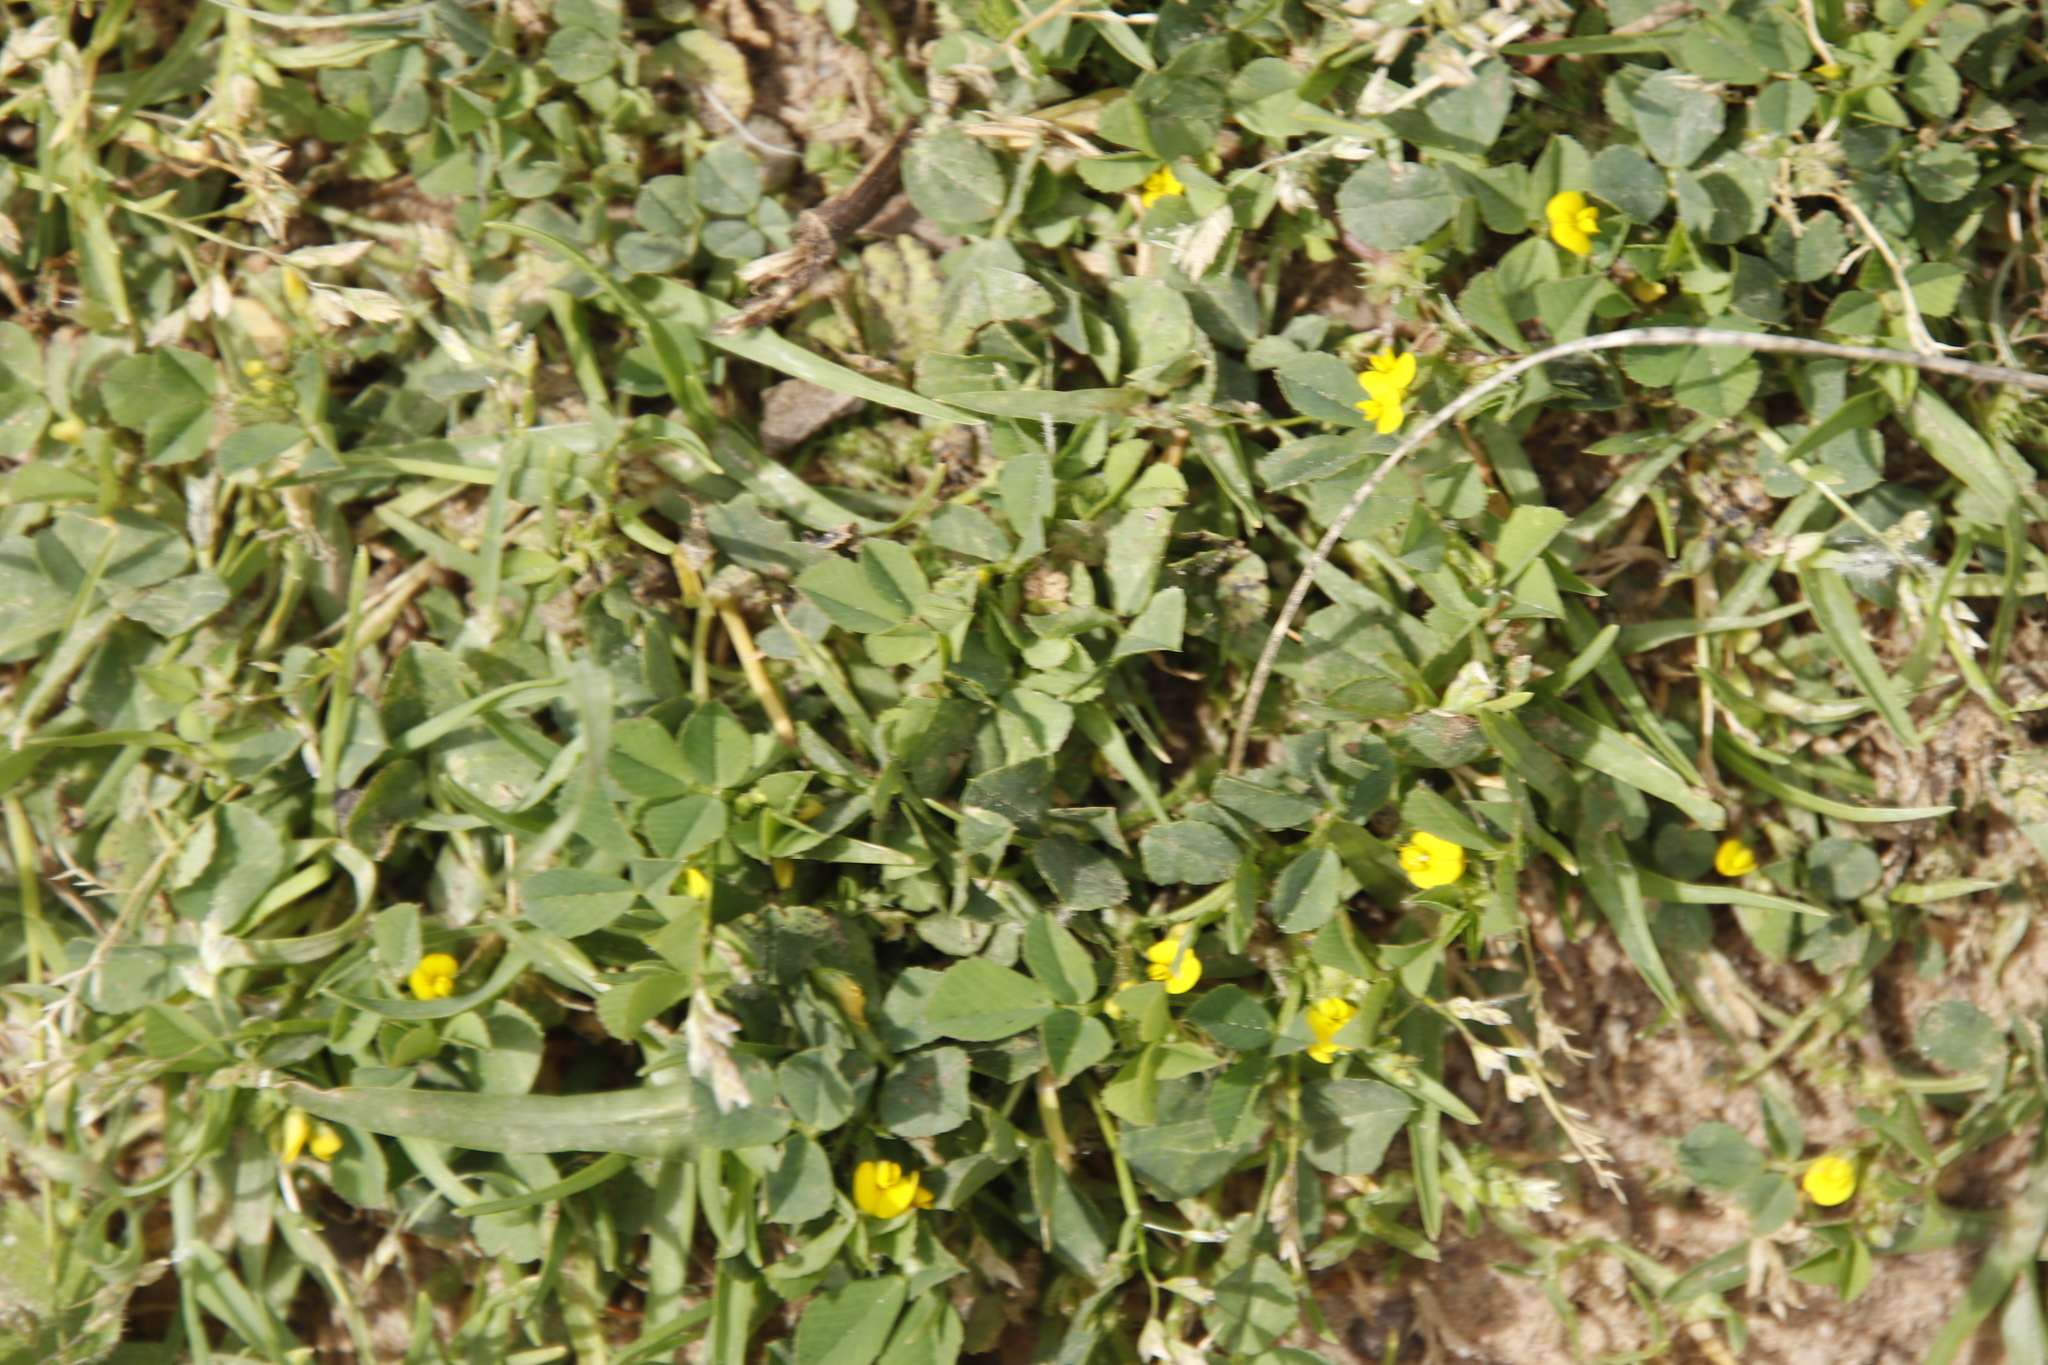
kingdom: Plantae
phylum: Tracheophyta
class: Magnoliopsida
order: Fabales
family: Fabaceae
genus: Medicago
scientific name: Medicago polymorpha
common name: Burclover
